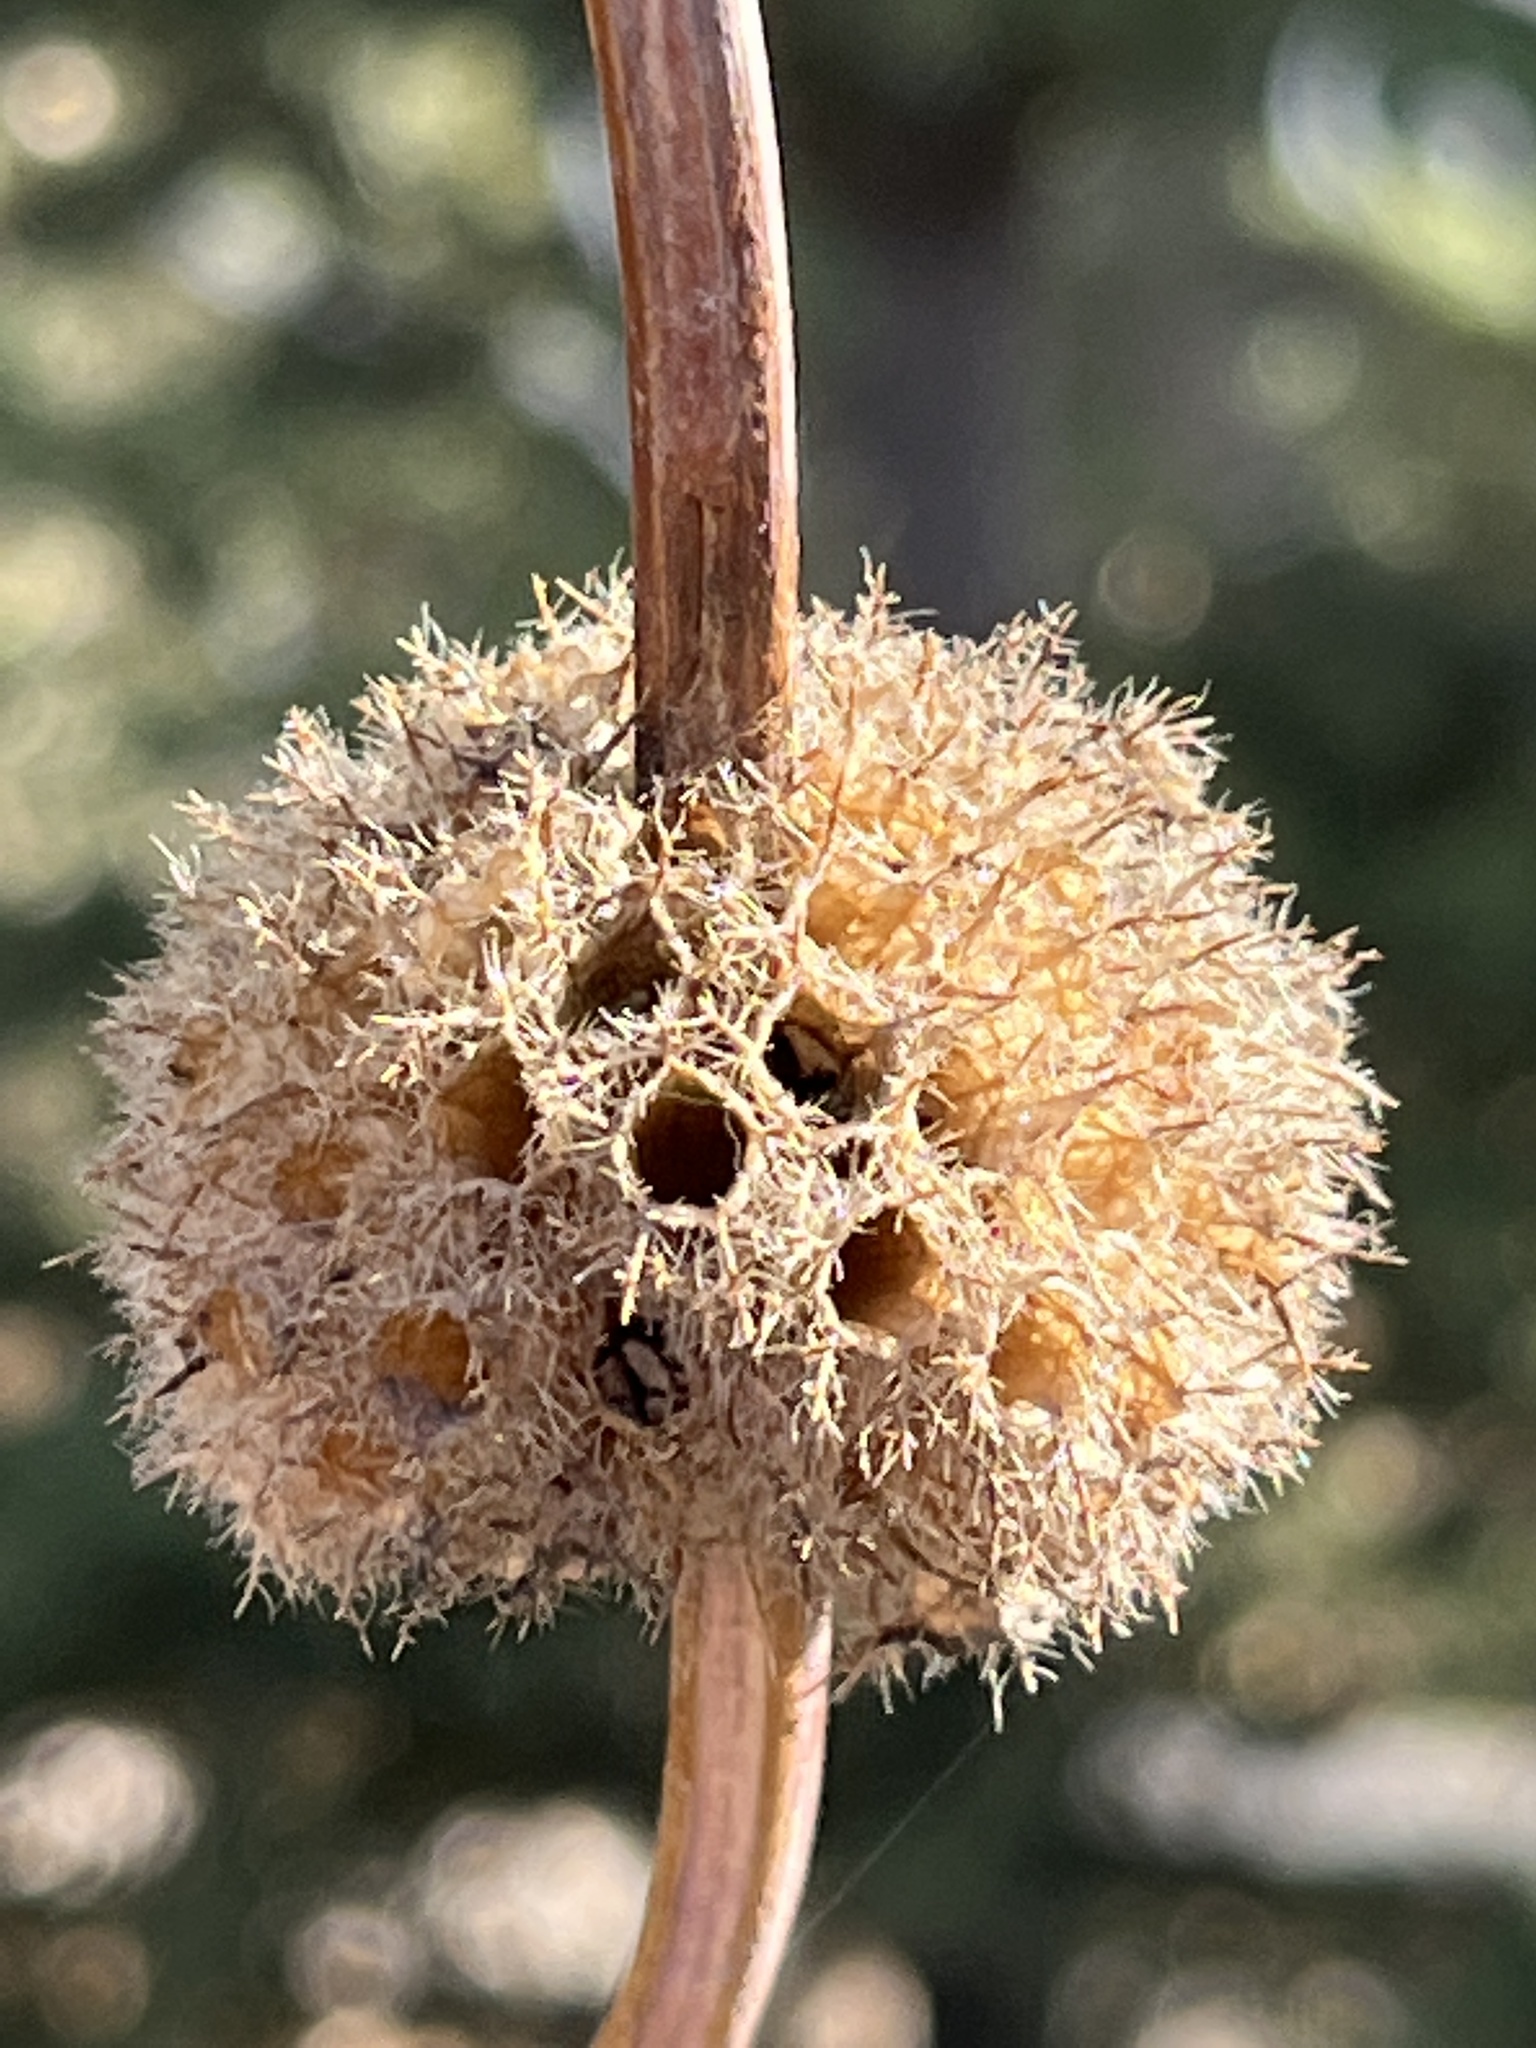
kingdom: Plantae
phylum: Tracheophyta
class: Magnoliopsida
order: Lamiales
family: Lamiaceae
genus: Phlomoides
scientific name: Phlomoides tuberosa
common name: Tuberous jerusalem sage
